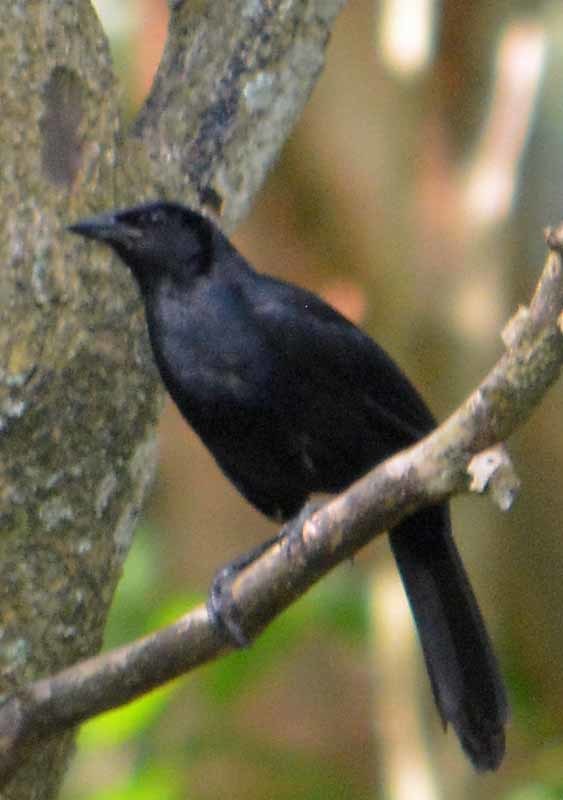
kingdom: Animalia
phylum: Chordata
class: Aves
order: Passeriformes
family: Icteridae
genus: Dives
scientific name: Dives dives
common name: Melodious blackbird
